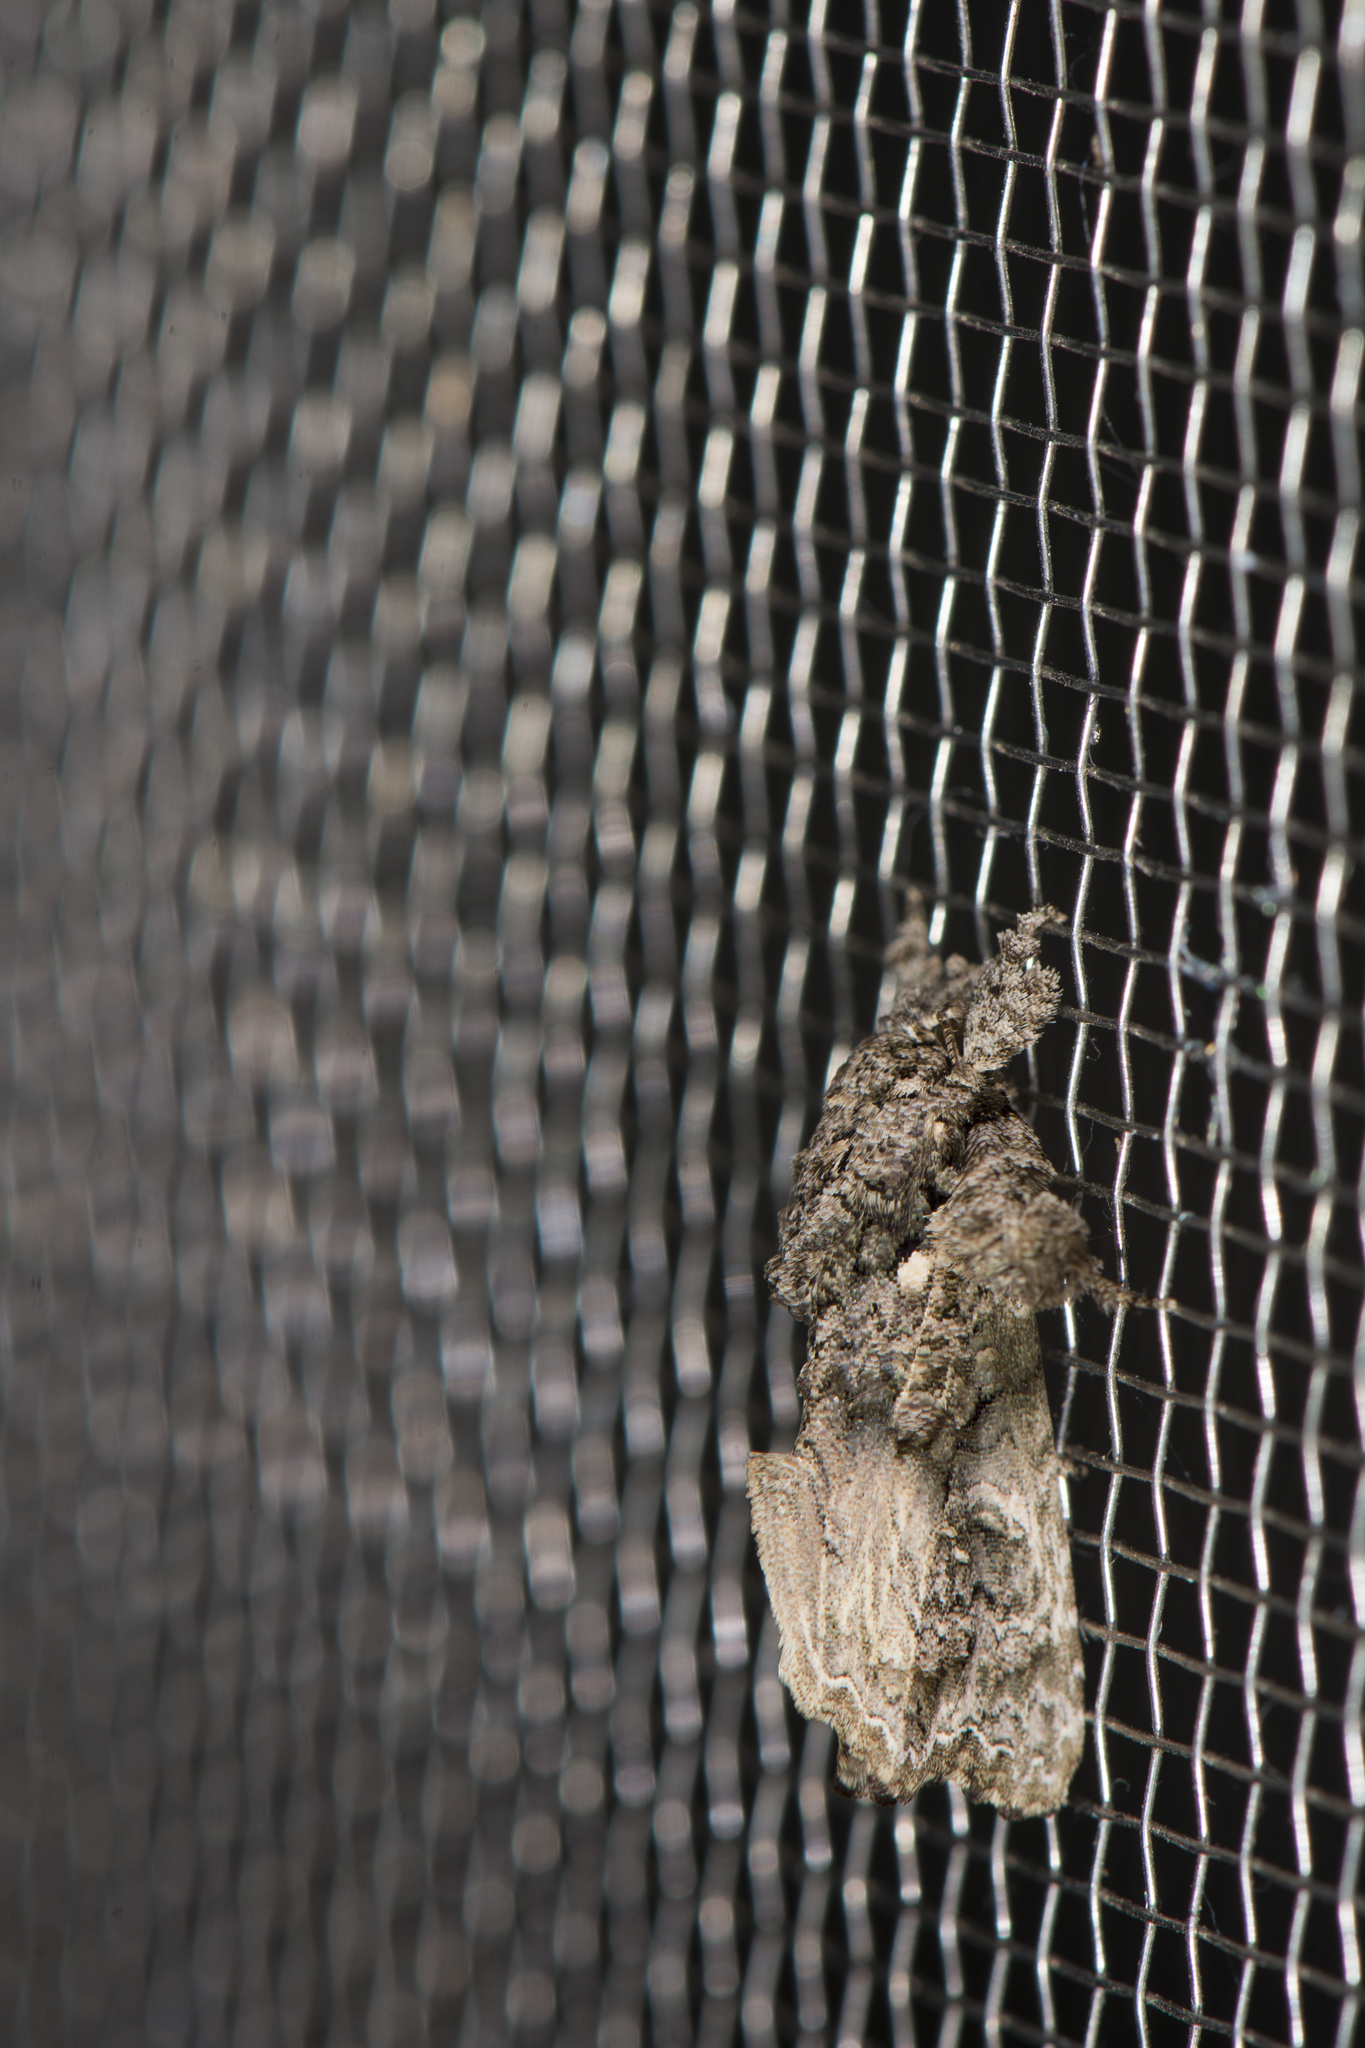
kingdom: Animalia
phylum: Arthropoda
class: Insecta
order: Lepidoptera
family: Noctuidae
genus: Callopistria
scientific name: Callopistria guttulalis
